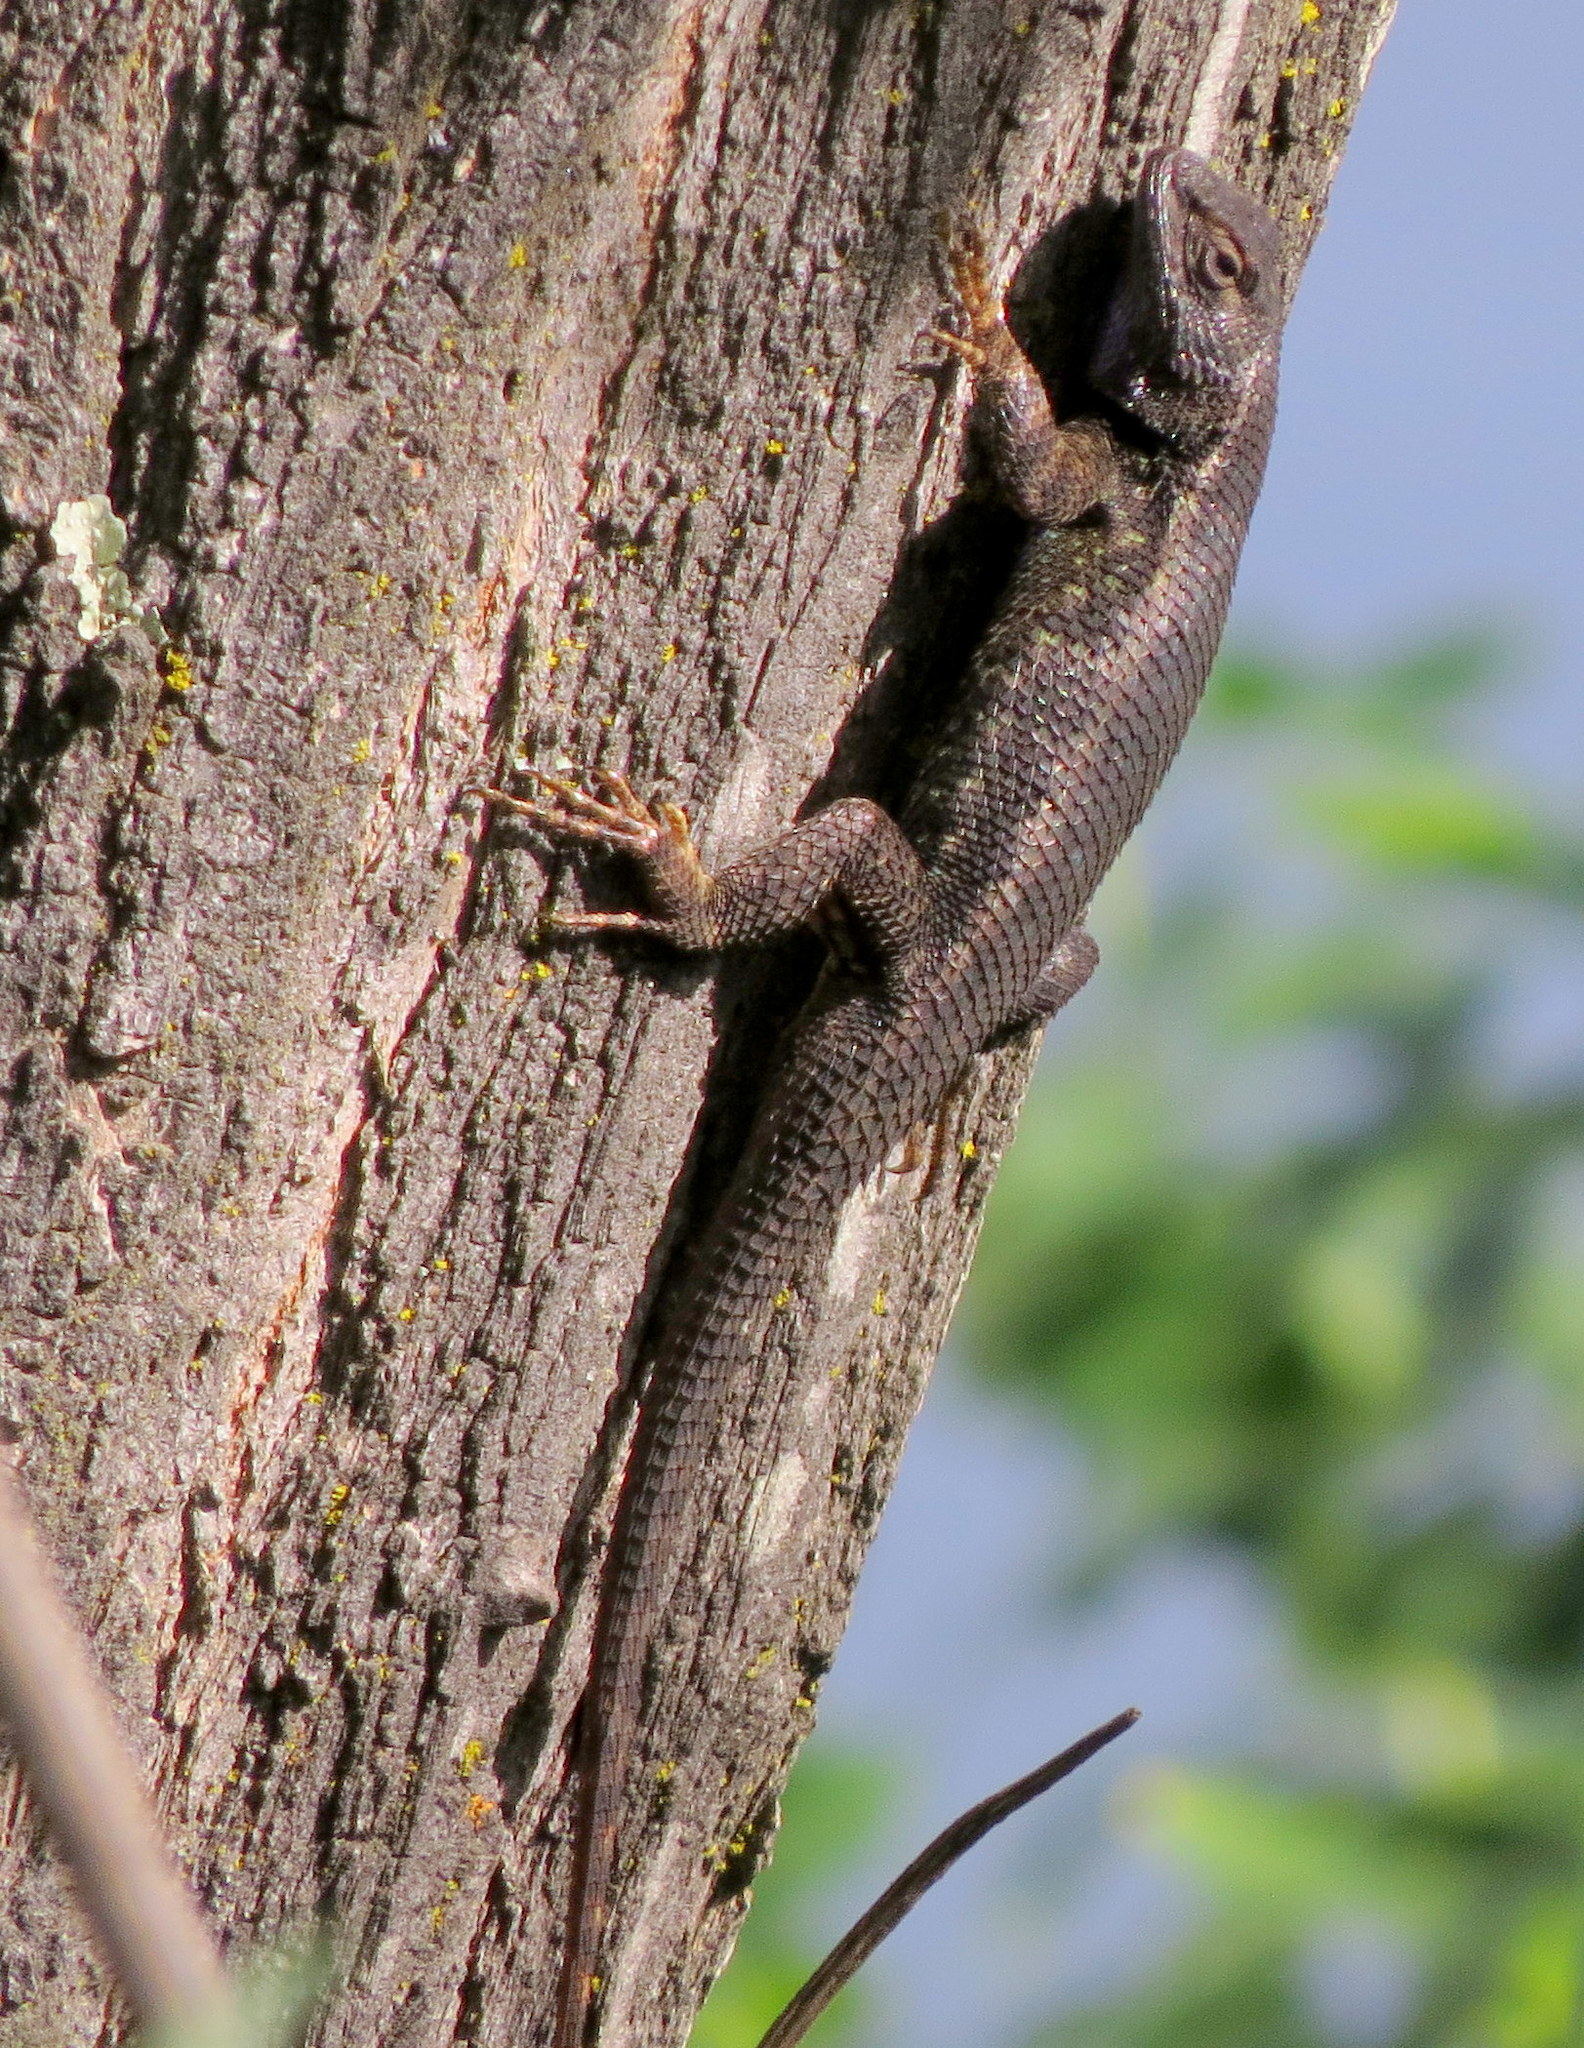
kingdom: Animalia
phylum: Chordata
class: Squamata
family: Phrynosomatidae
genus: Sceloporus
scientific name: Sceloporus occidentalis
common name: Western fence lizard
